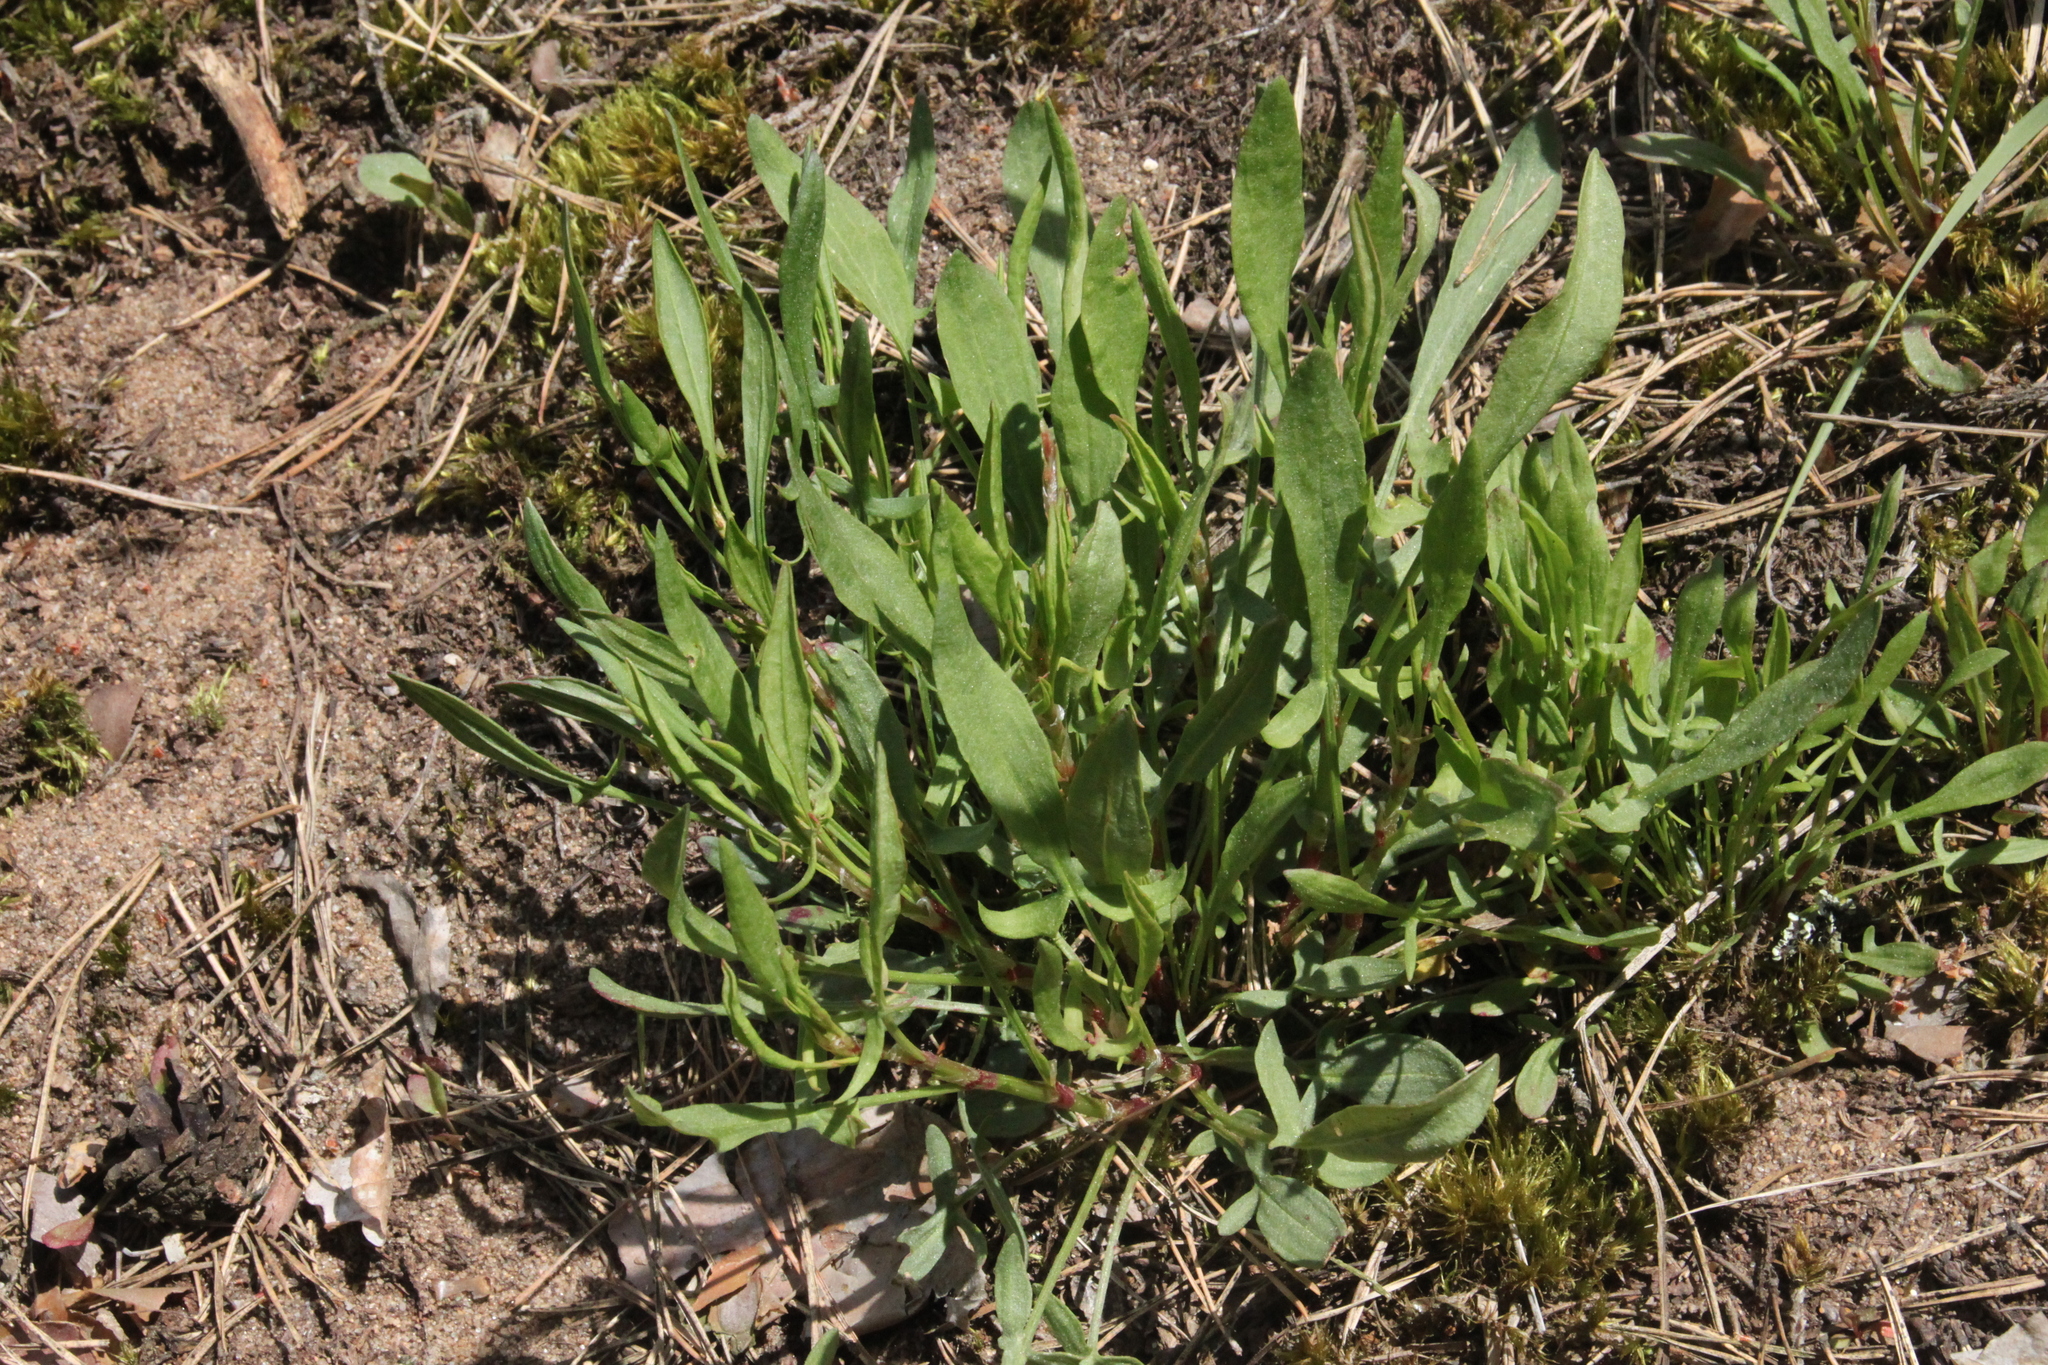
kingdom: Plantae
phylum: Tracheophyta
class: Magnoliopsida
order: Caryophyllales
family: Polygonaceae
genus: Rumex
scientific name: Rumex acetosella
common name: Common sheep sorrel
